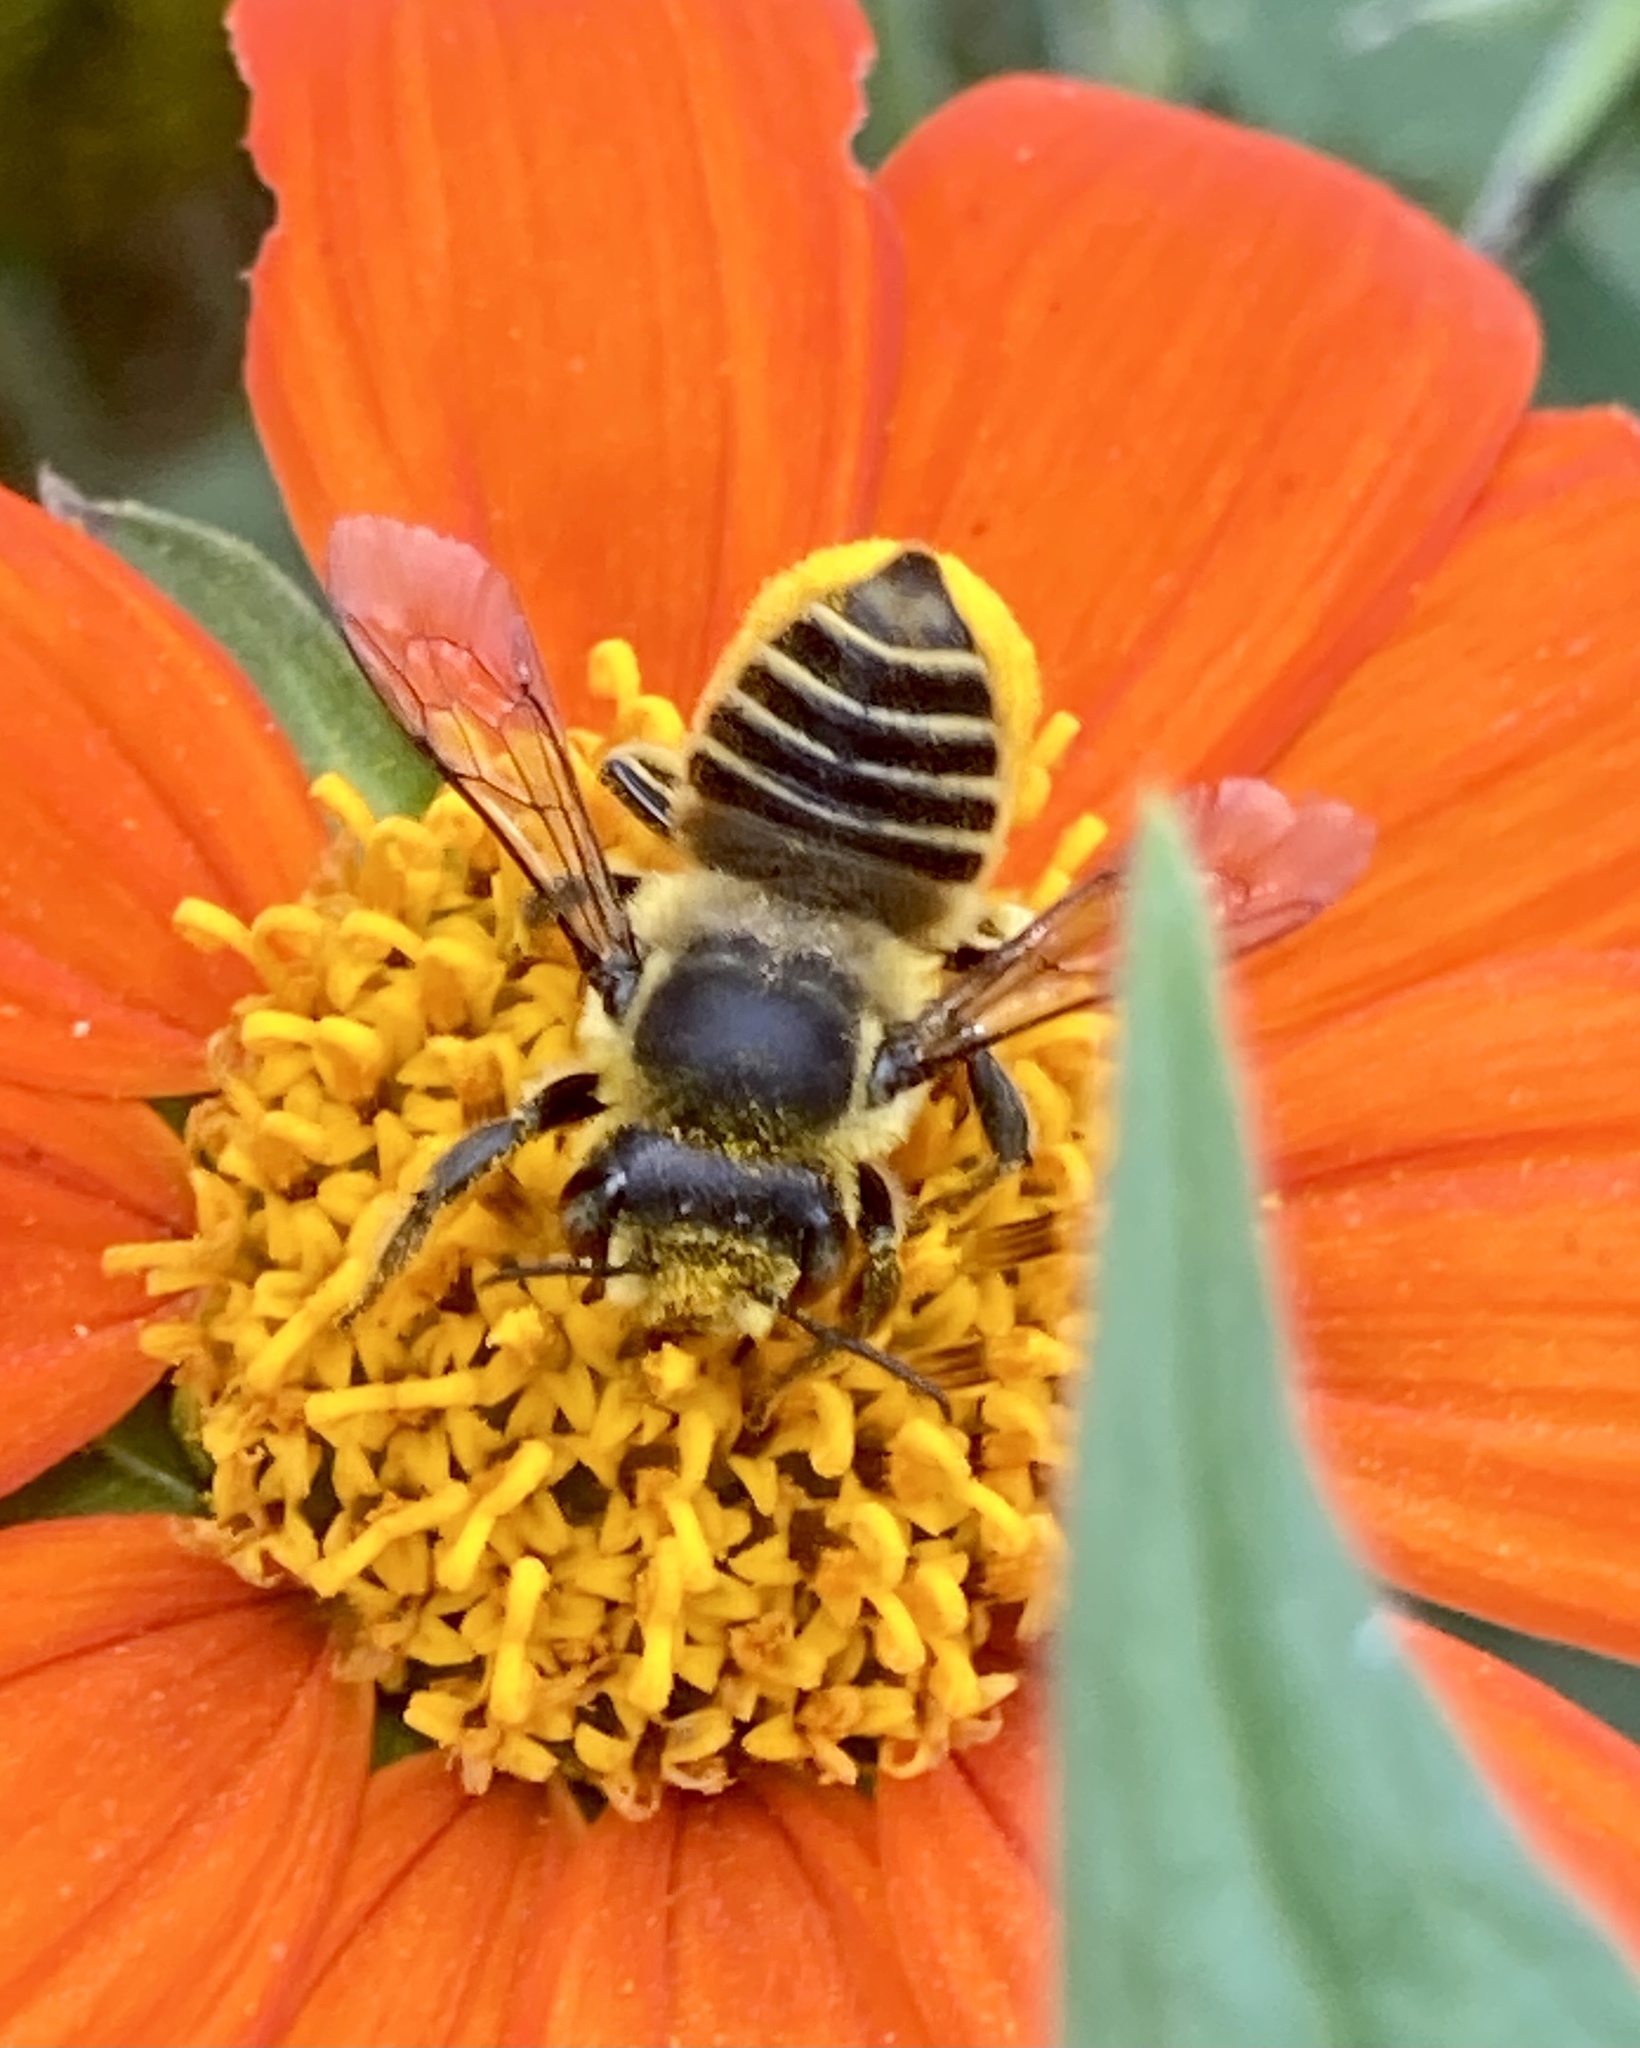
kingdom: Animalia
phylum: Arthropoda
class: Insecta
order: Hymenoptera
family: Megachilidae
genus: Megachile
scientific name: Megachile parallela
